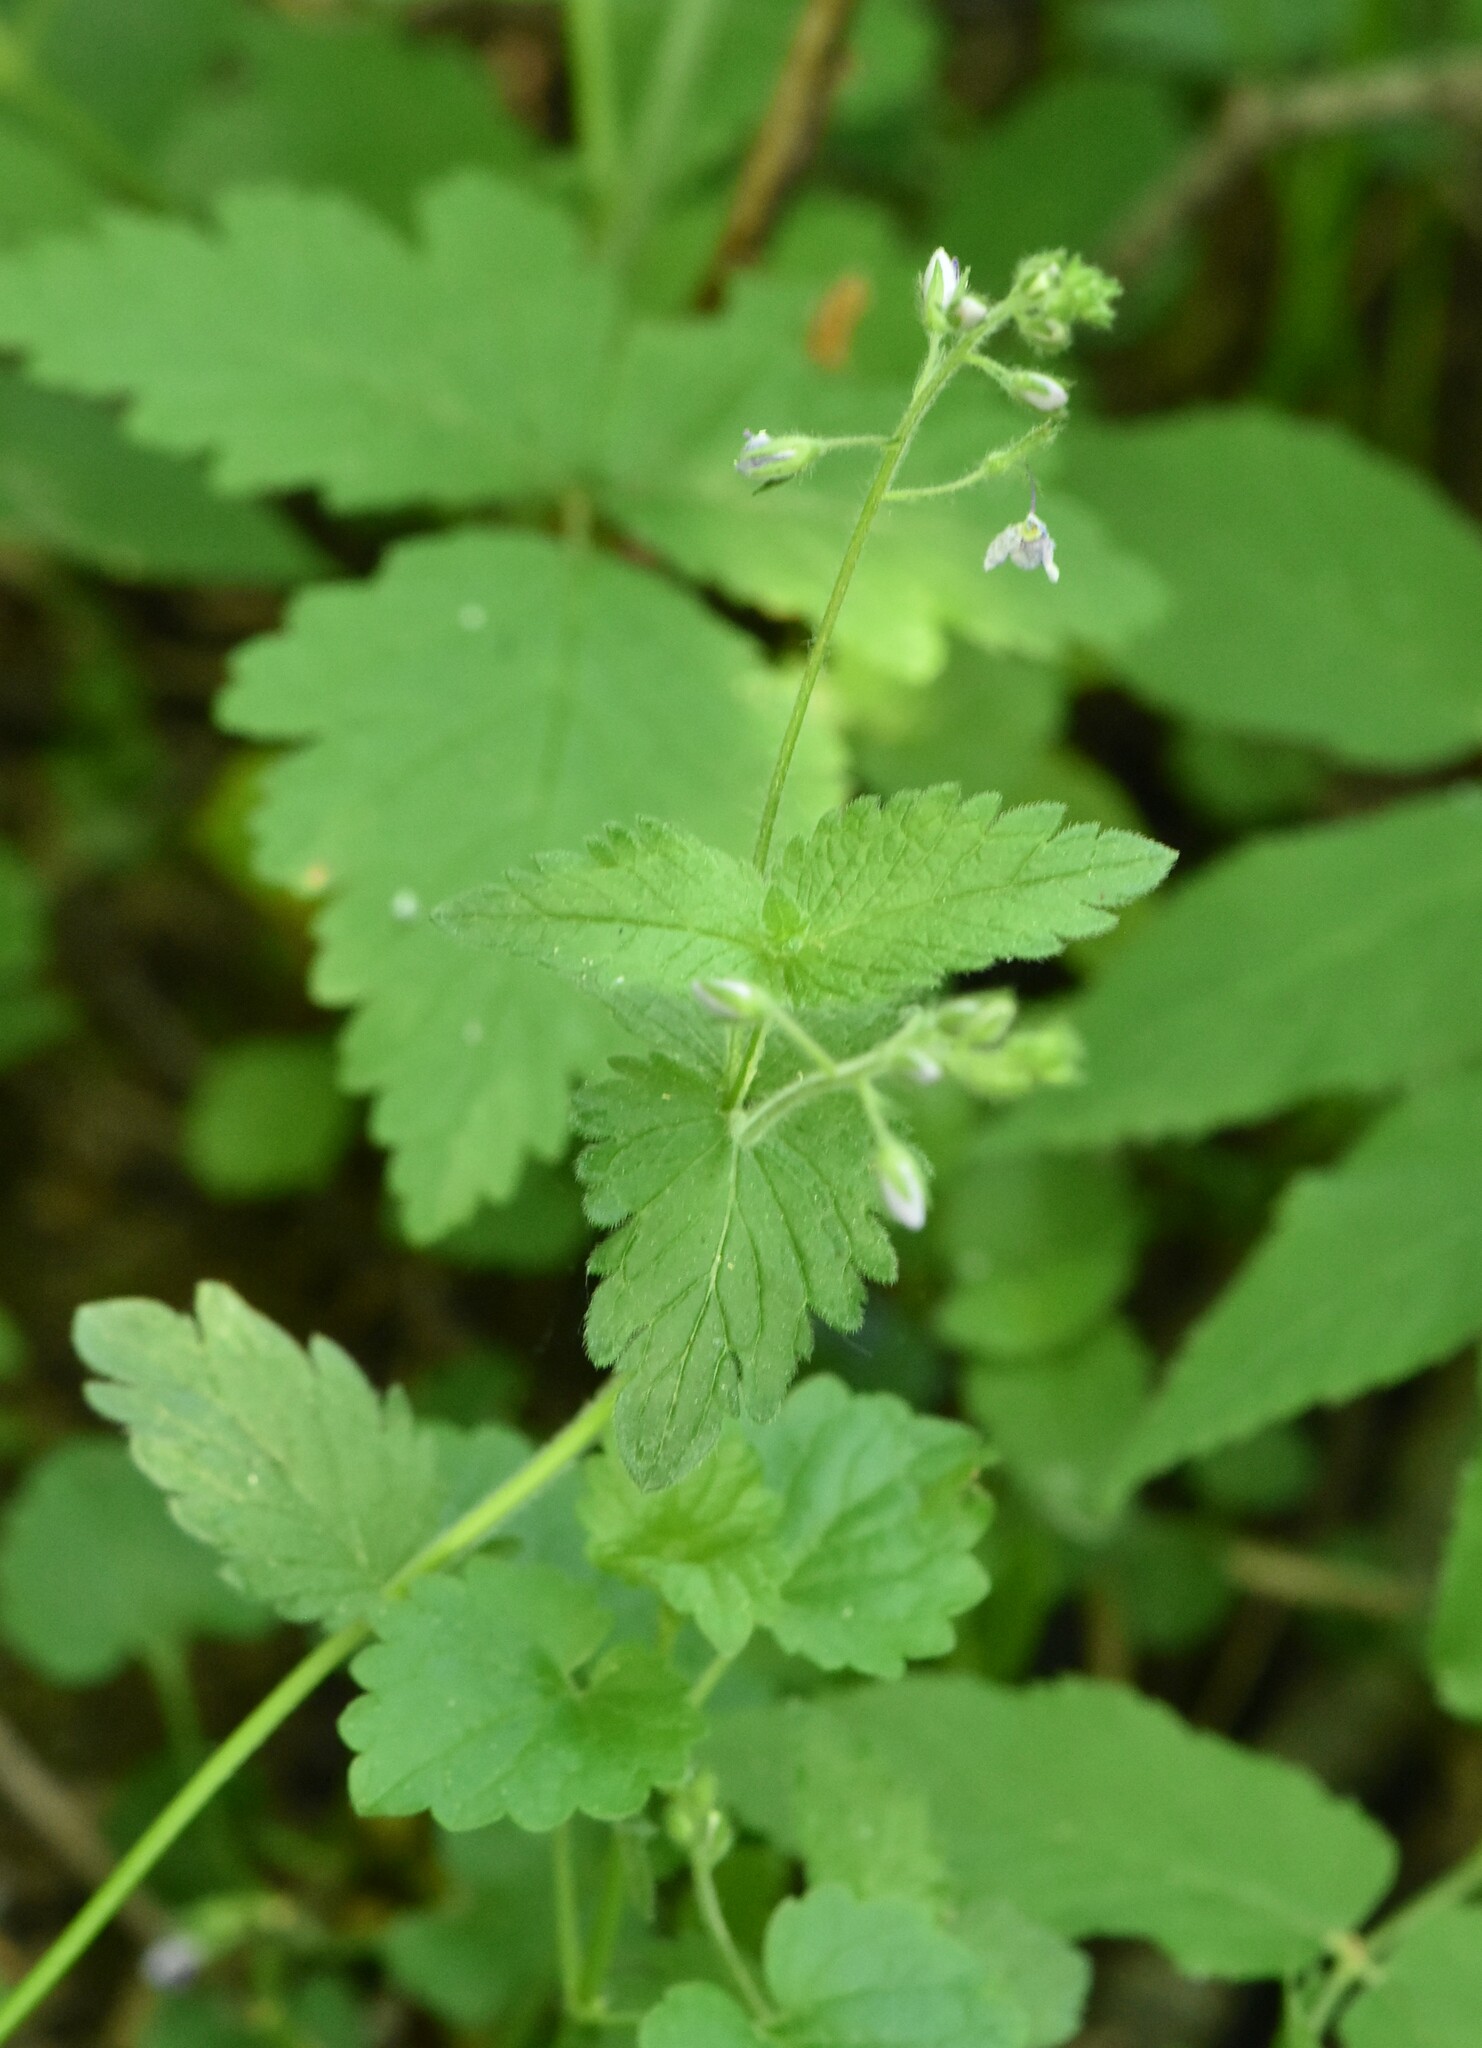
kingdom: Plantae
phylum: Tracheophyta
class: Magnoliopsida
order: Lamiales
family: Plantaginaceae
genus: Veronica
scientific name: Veronica chamaedrys
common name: Germander speedwell
